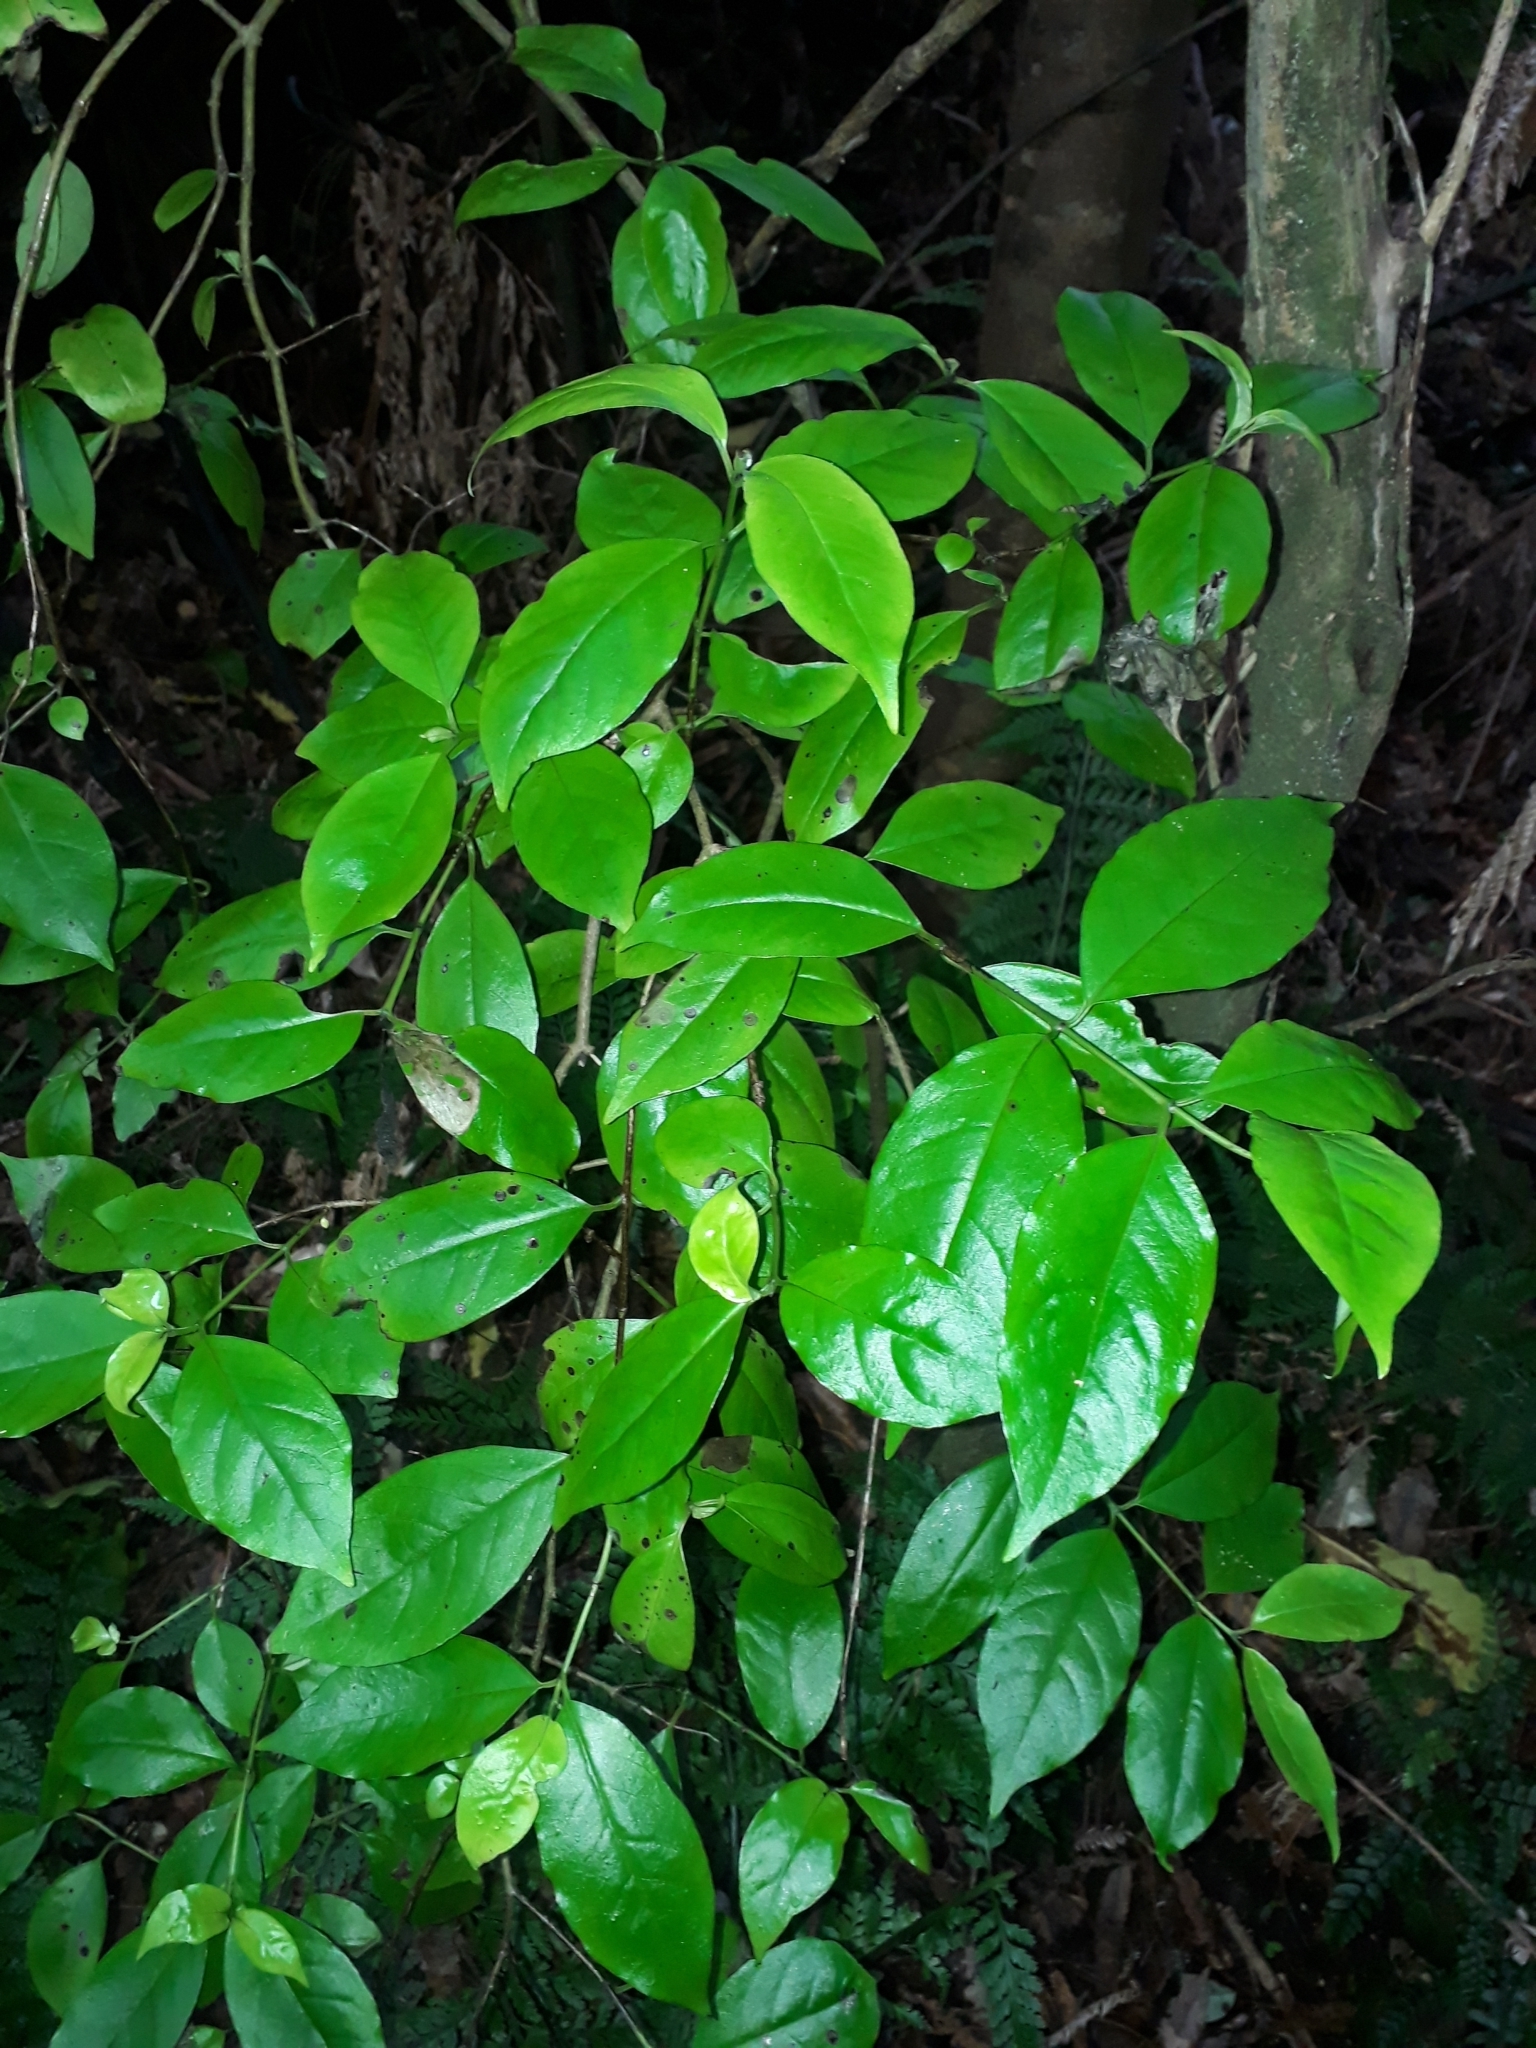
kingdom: Plantae
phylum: Tracheophyta
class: Magnoliopsida
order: Gentianales
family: Loganiaceae
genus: Geniostoma
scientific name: Geniostoma ligustrifolium
